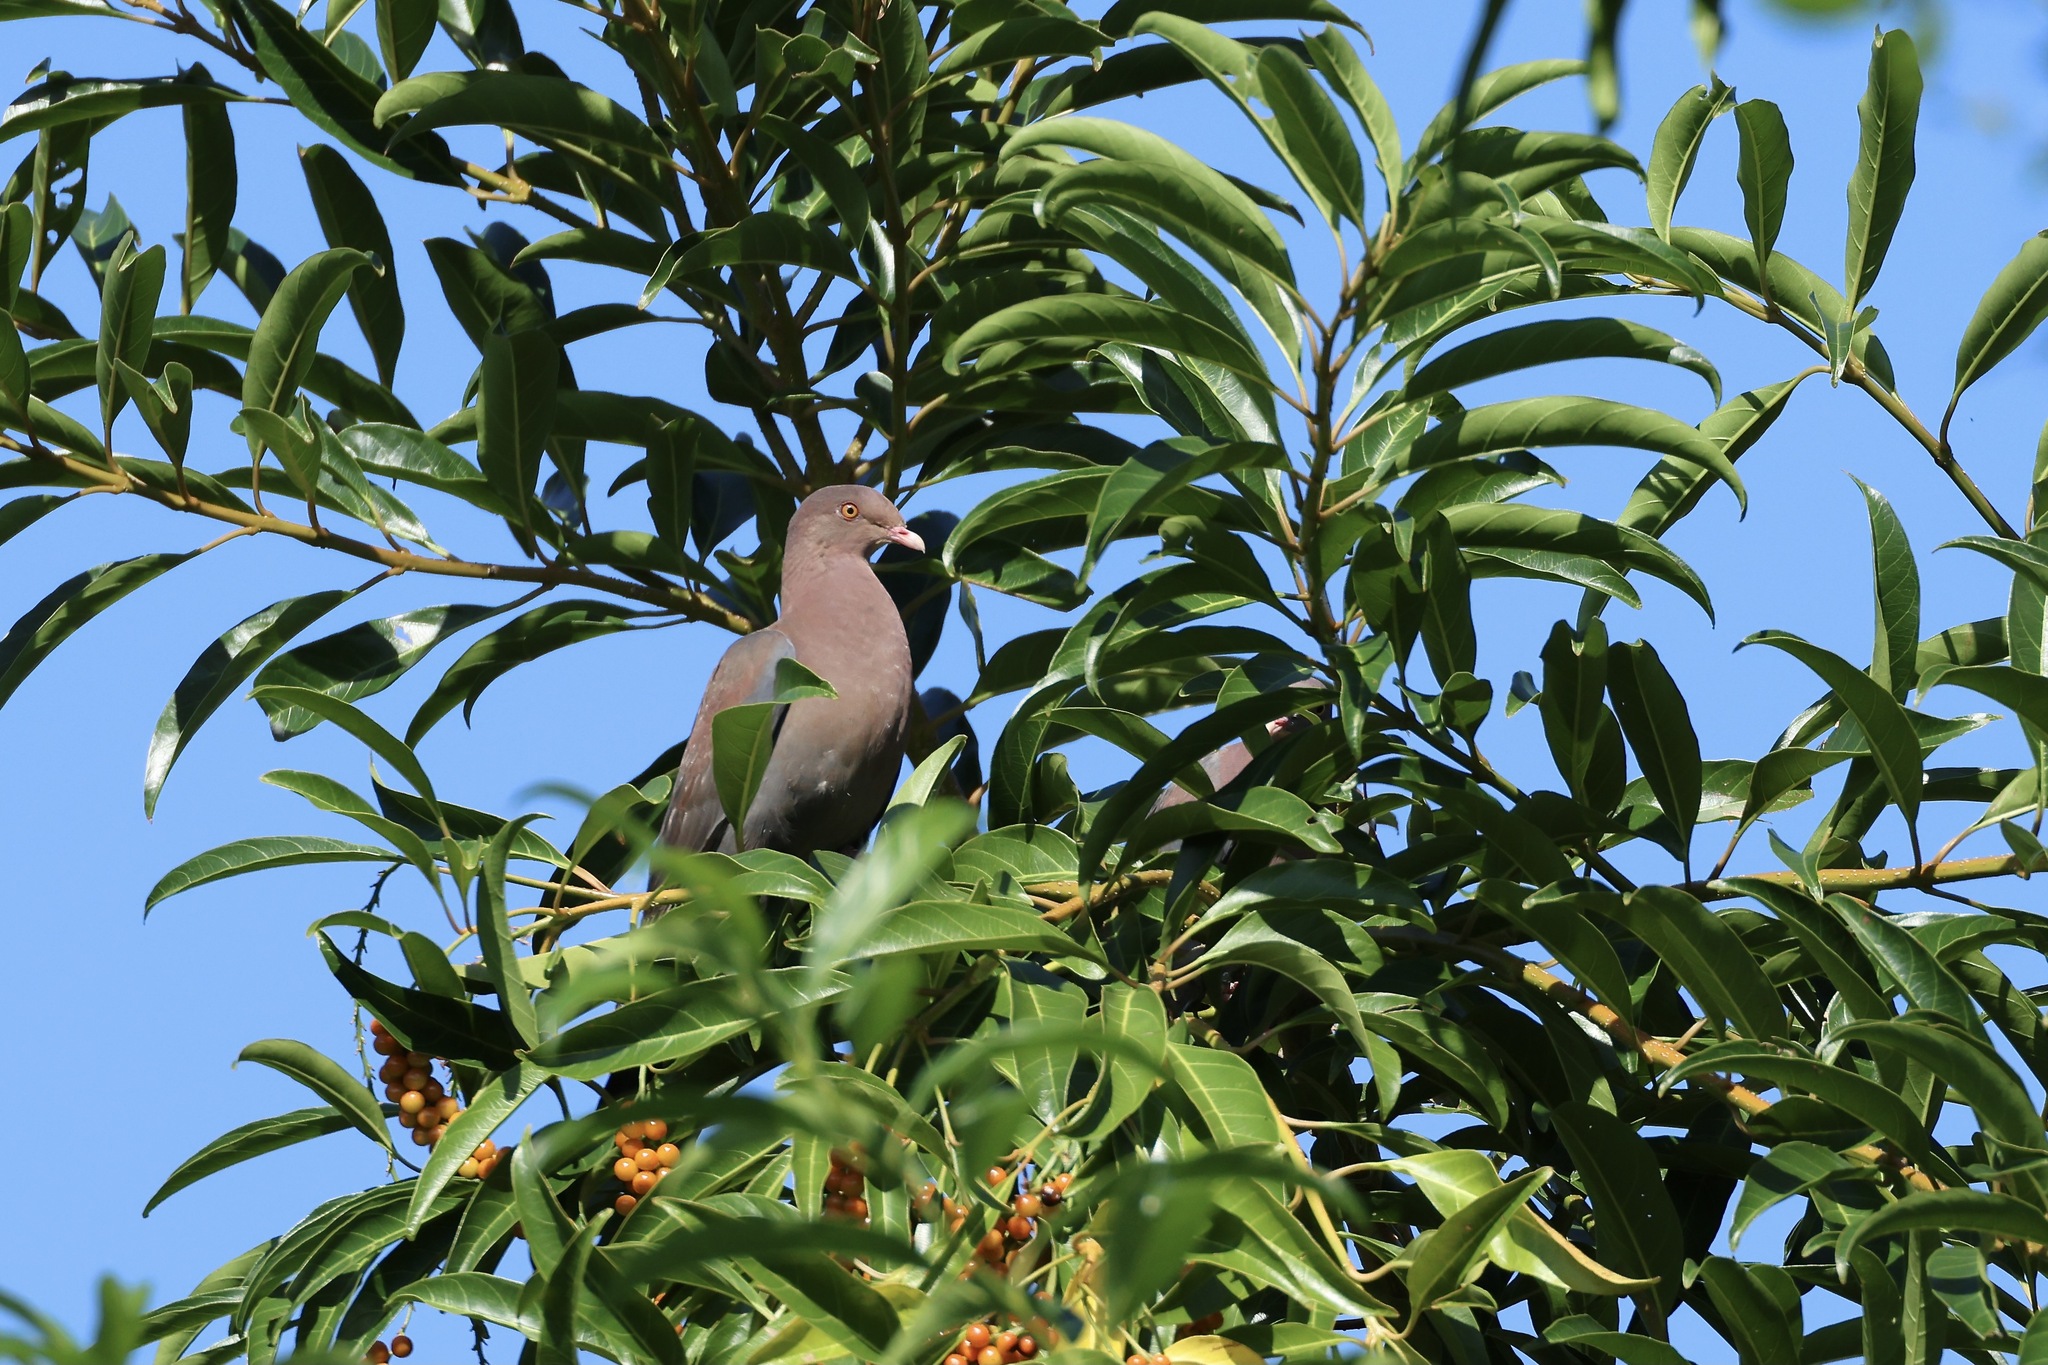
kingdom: Animalia
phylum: Chordata
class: Aves
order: Columbiformes
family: Columbidae
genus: Patagioenas
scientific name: Patagioenas flavirostris
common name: Red-billed pigeon
